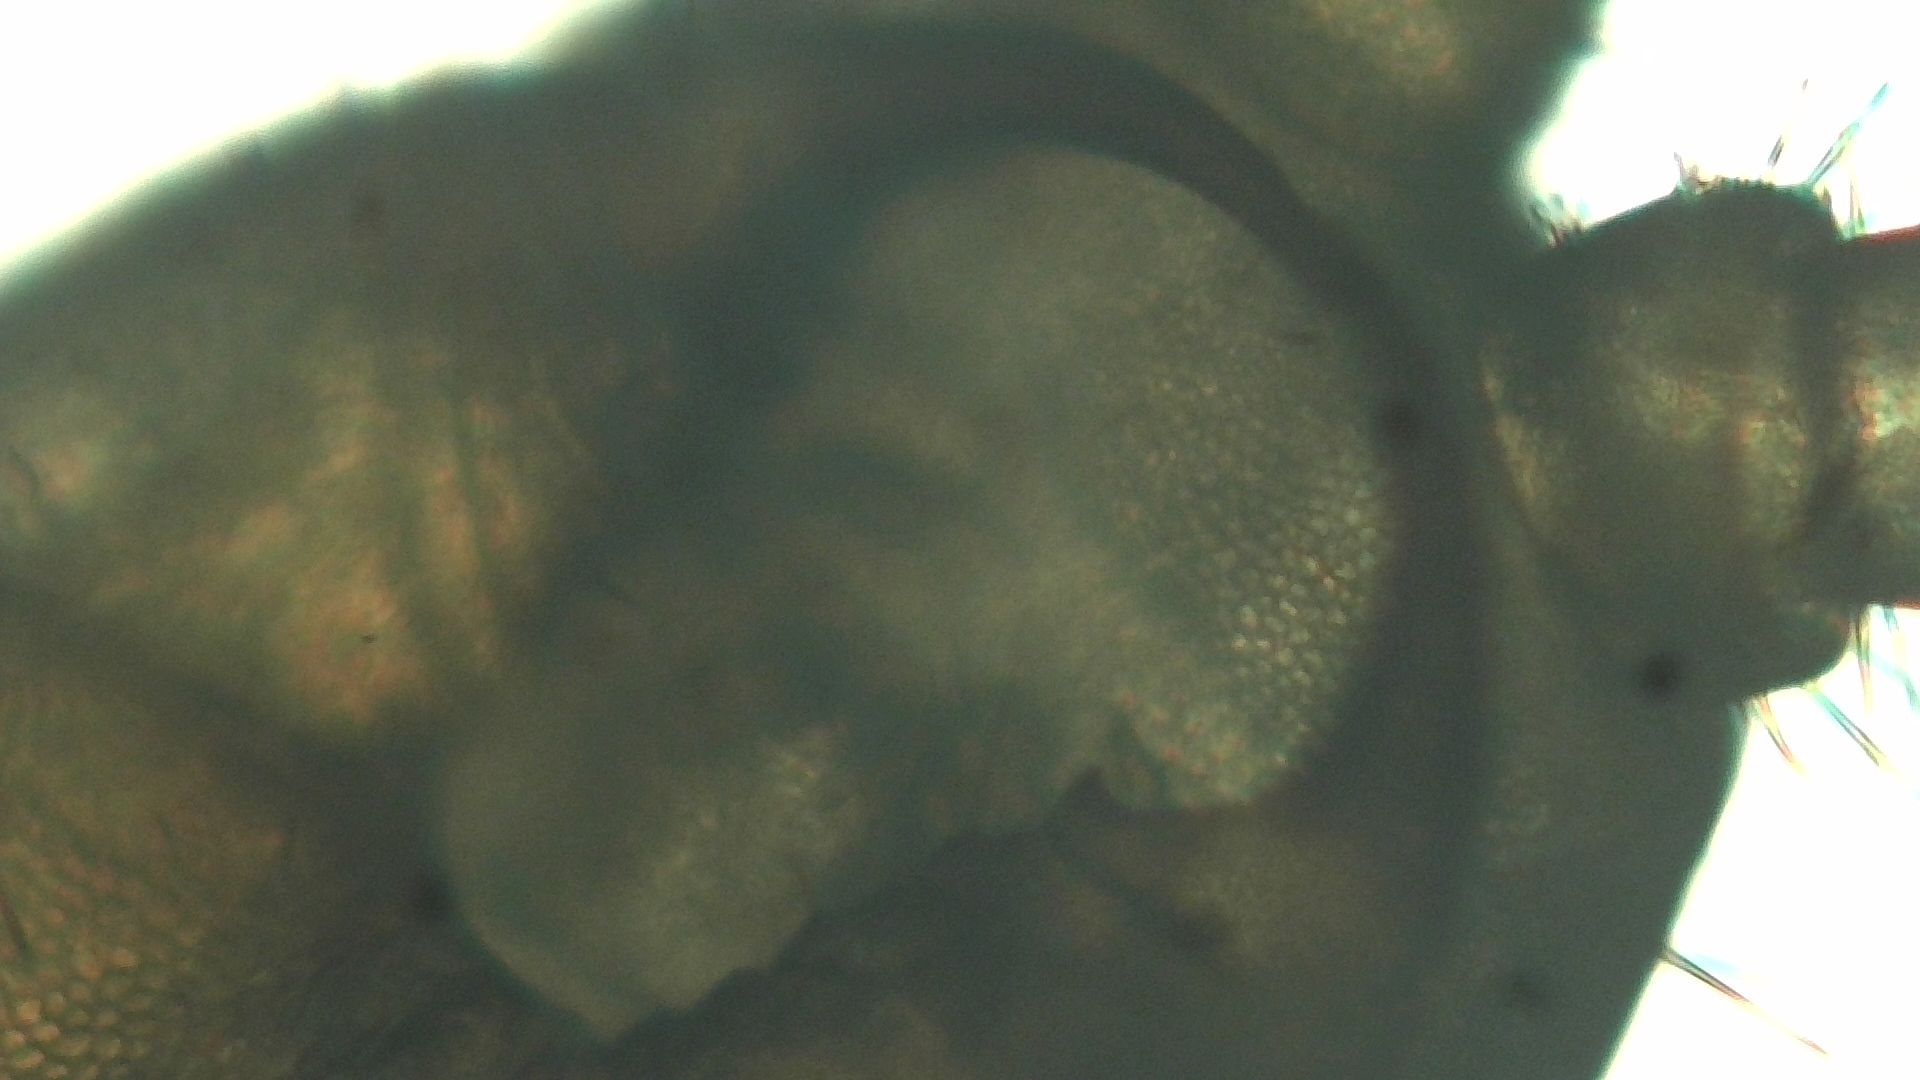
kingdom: Animalia
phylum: Arthropoda
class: Chilopoda
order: Geophilomorpha
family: Geophilidae
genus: Geophilus
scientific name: Geophilus truncorum
